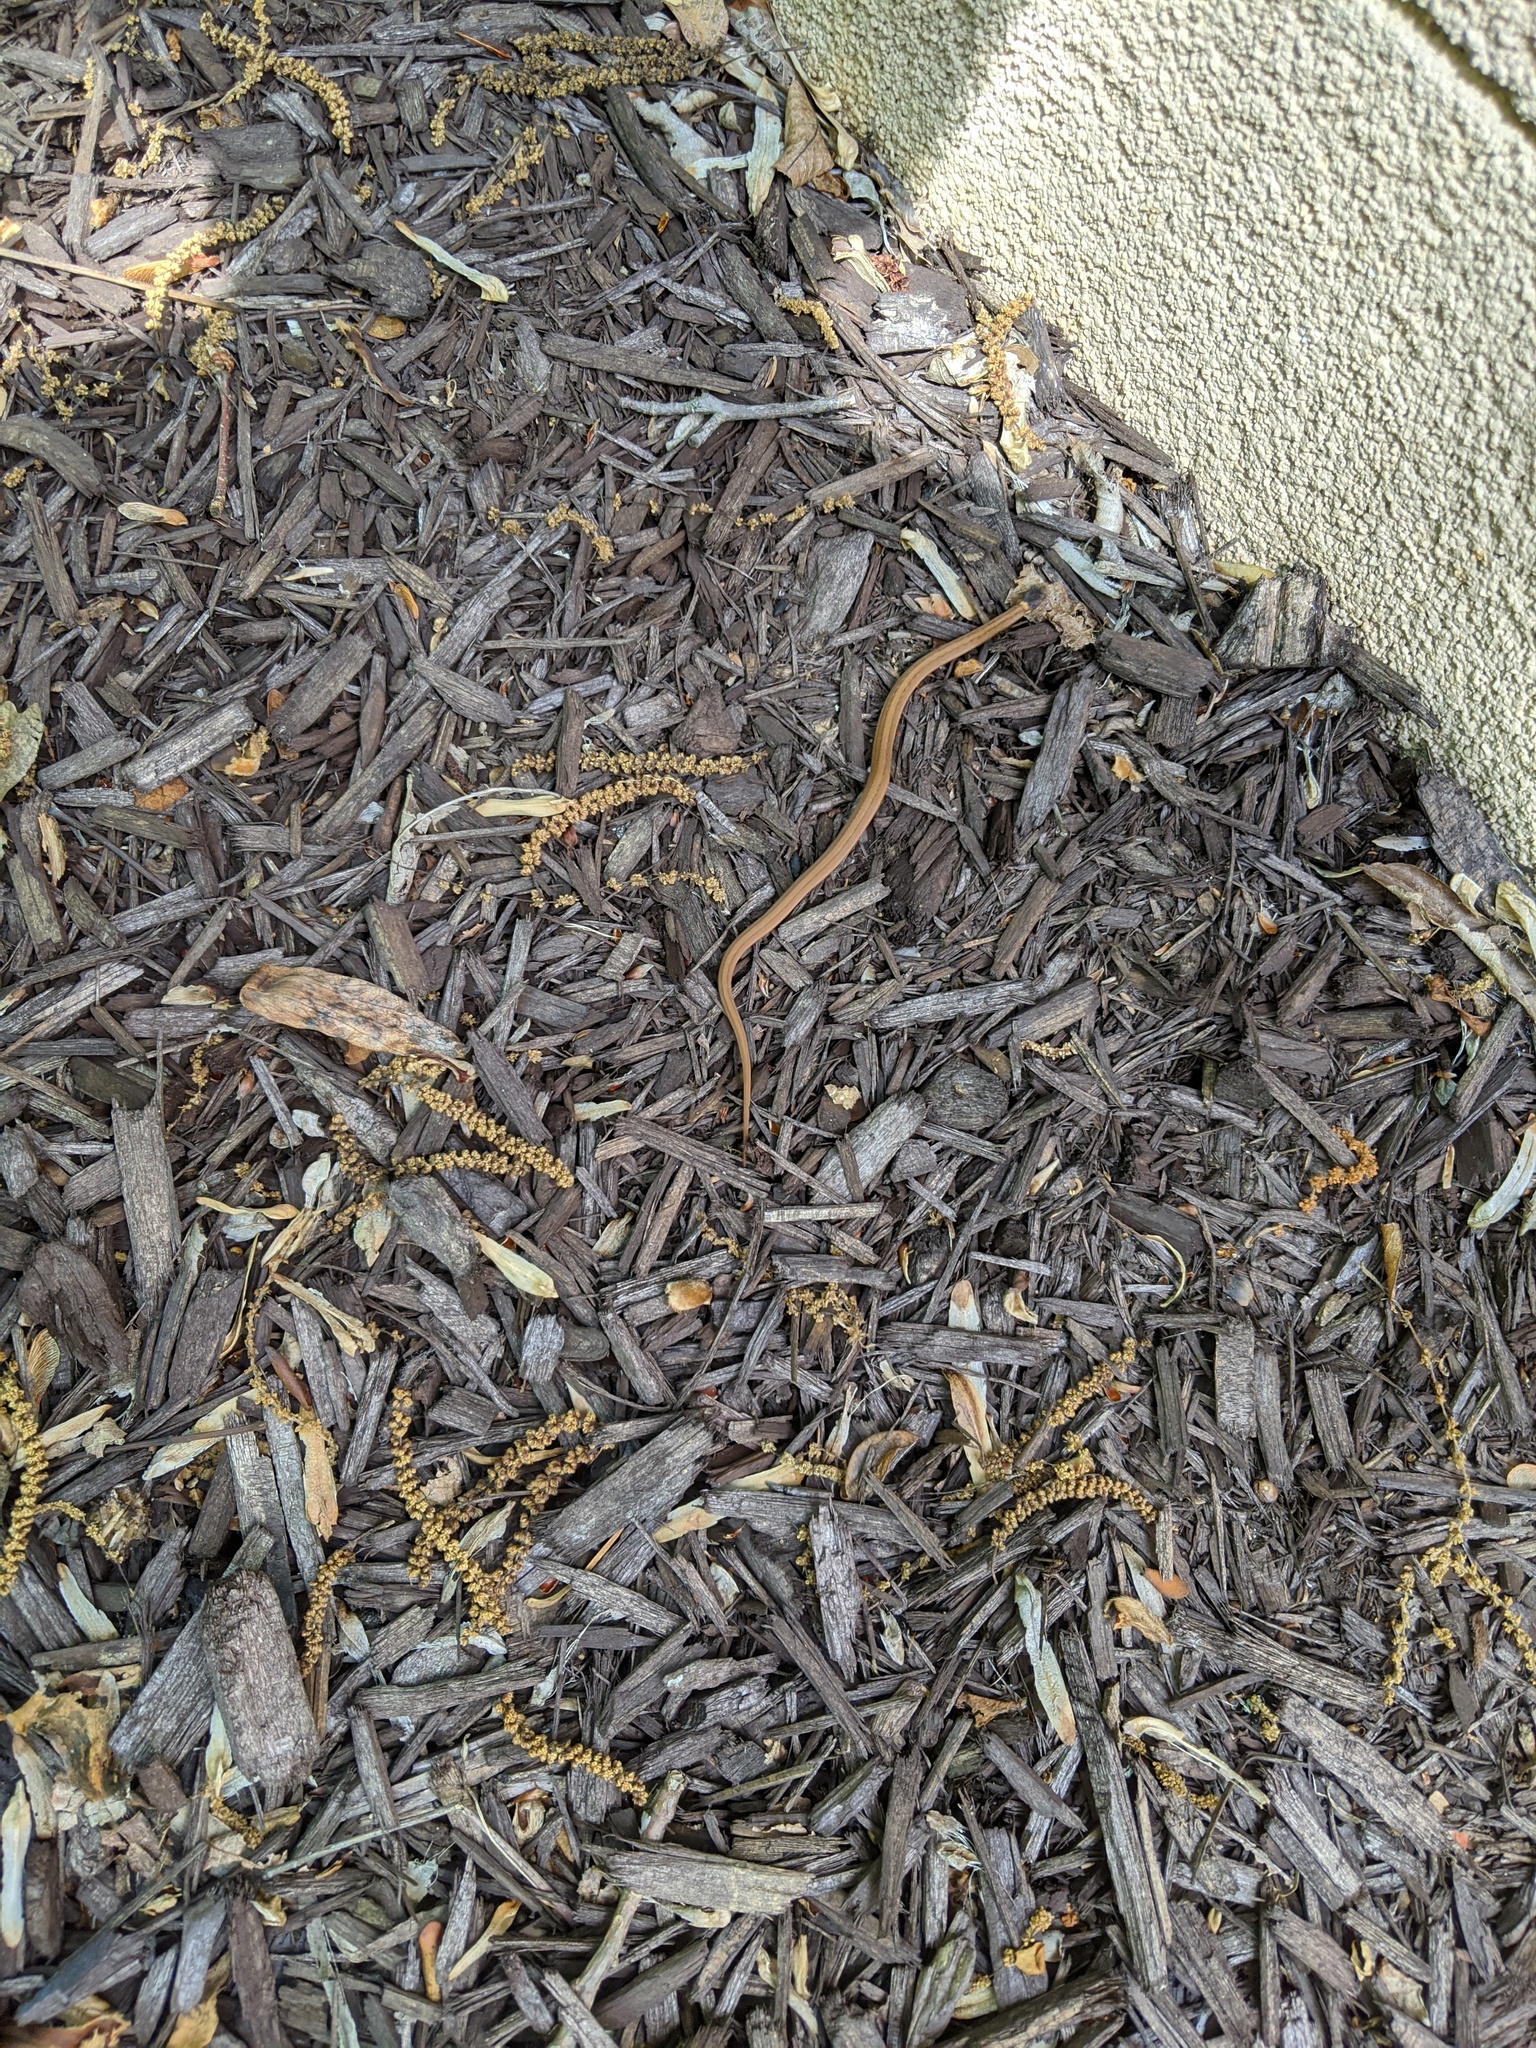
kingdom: Animalia
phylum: Chordata
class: Squamata
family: Colubridae
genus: Storeria
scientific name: Storeria occipitomaculata
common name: Redbelly snake
